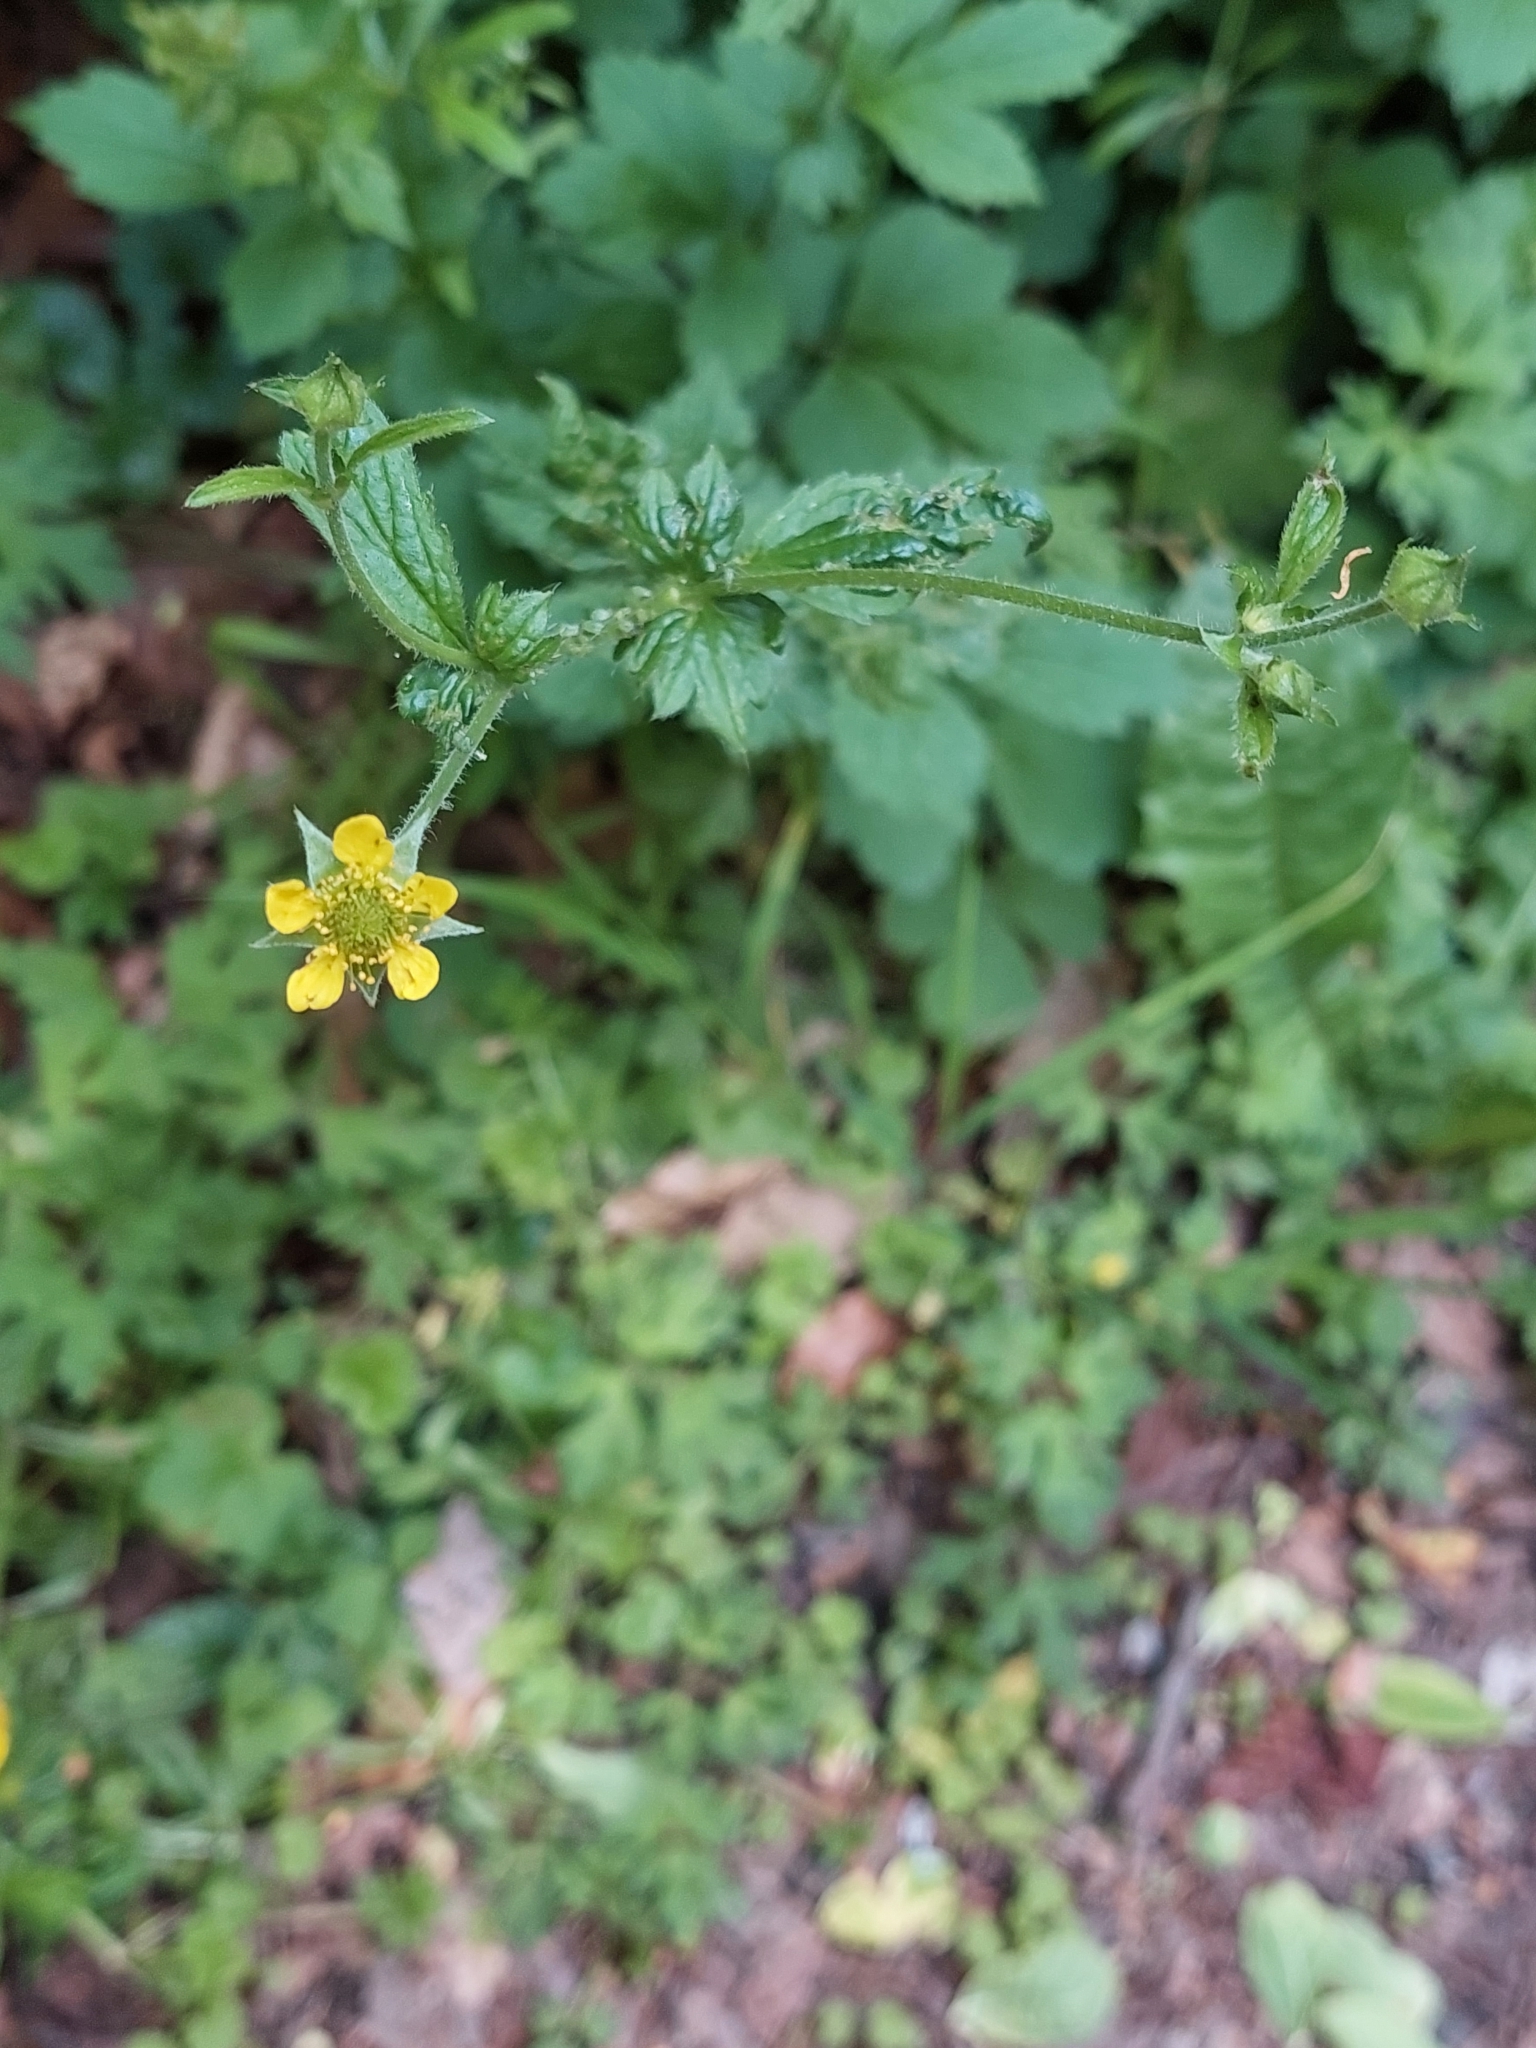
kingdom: Plantae
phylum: Tracheophyta
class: Magnoliopsida
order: Rosales
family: Rosaceae
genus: Geum
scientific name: Geum urbanum
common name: Wood avens
